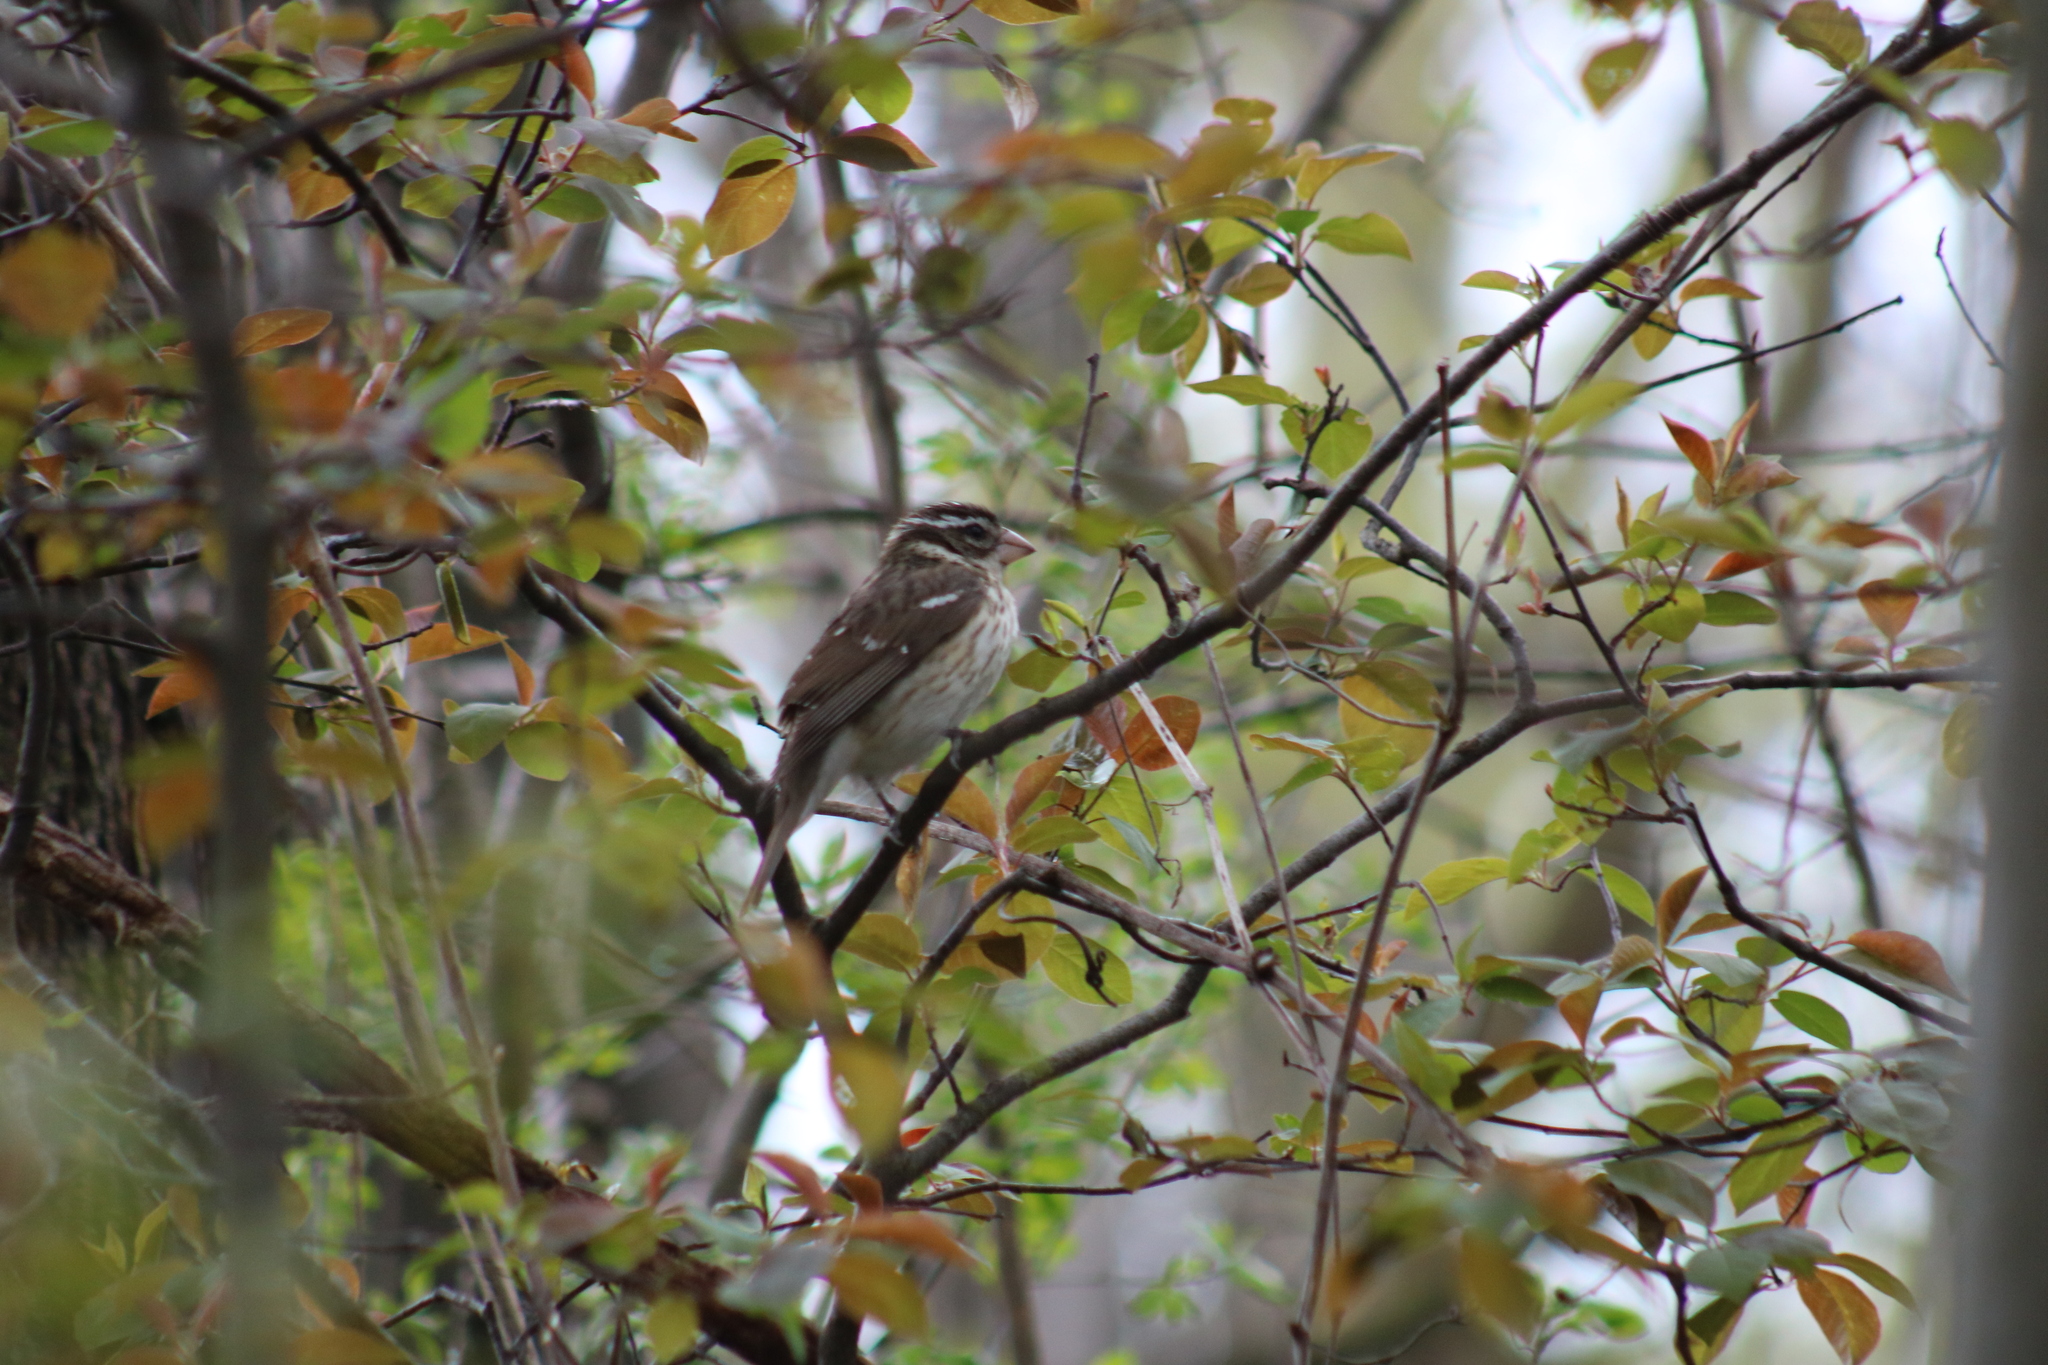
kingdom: Animalia
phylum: Chordata
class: Aves
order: Passeriformes
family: Cardinalidae
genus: Pheucticus
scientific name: Pheucticus ludovicianus
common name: Rose-breasted grosbeak
